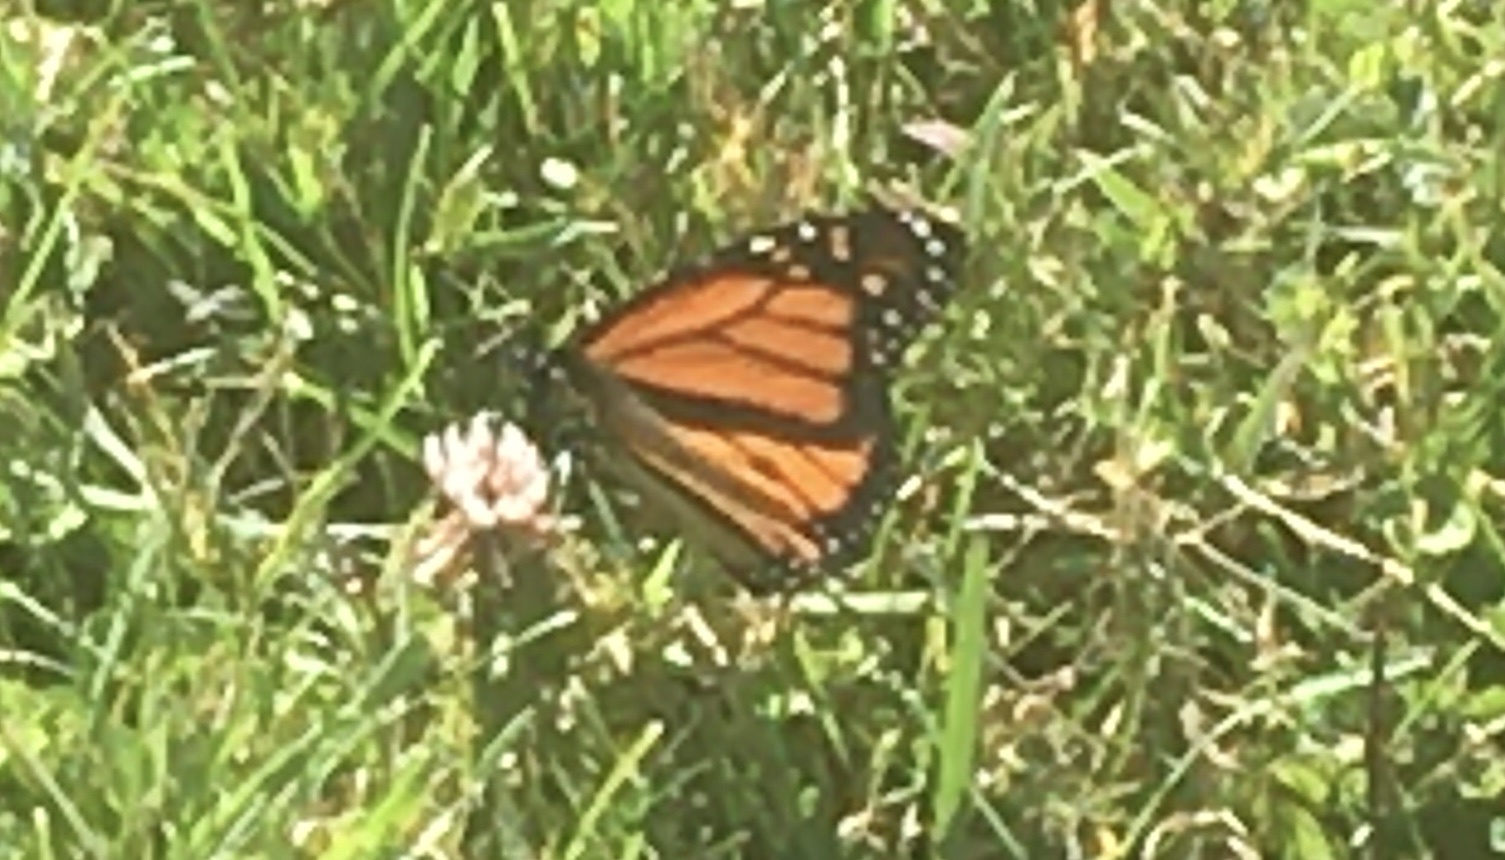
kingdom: Animalia
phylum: Arthropoda
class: Insecta
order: Lepidoptera
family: Nymphalidae
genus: Danaus
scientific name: Danaus plexippus
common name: Monarch
